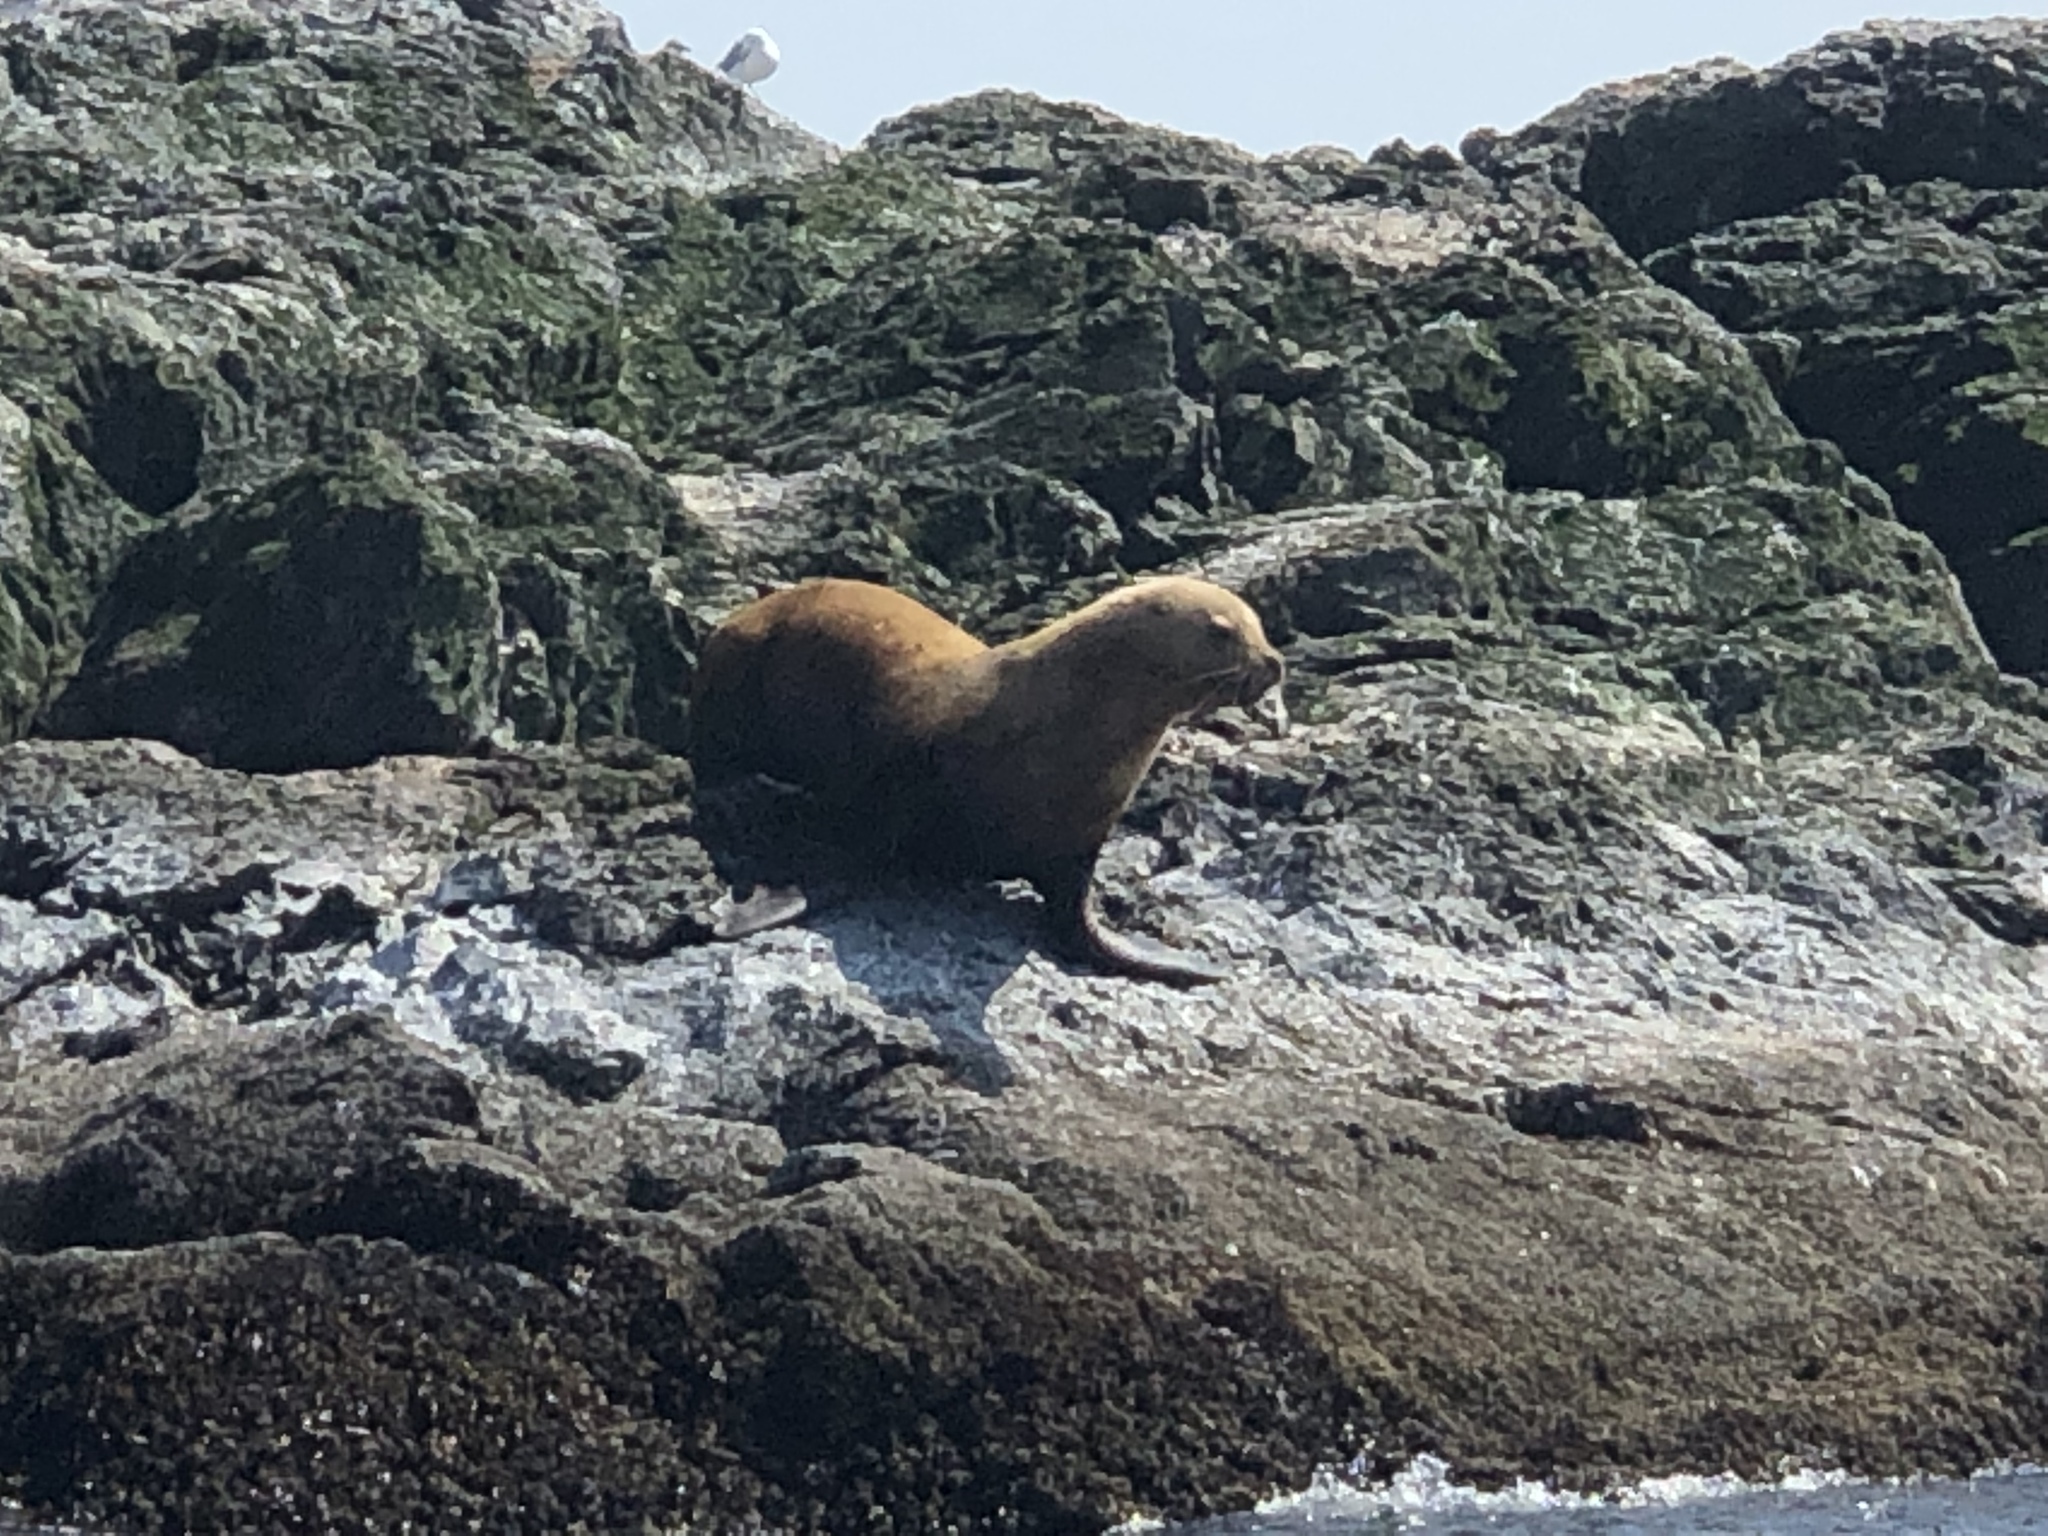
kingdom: Animalia
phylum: Chordata
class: Mammalia
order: Carnivora
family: Otariidae
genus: Eumetopias
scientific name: Eumetopias jubatus
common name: Steller sea lion
